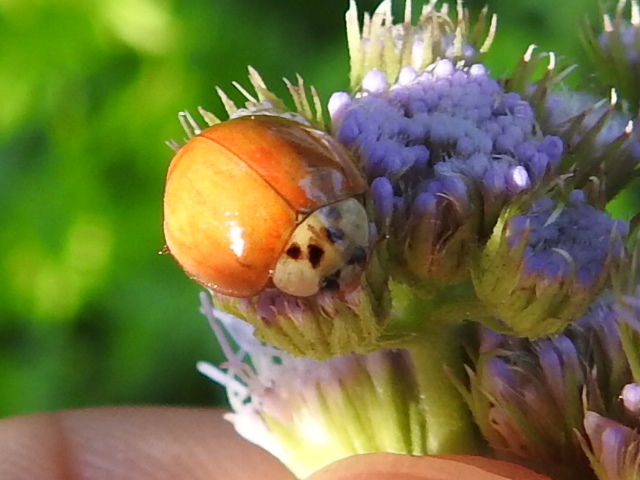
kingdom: Animalia
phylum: Arthropoda
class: Insecta
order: Coleoptera
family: Coccinellidae
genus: Harmonia
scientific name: Harmonia axyridis
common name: Harlequin ladybird
